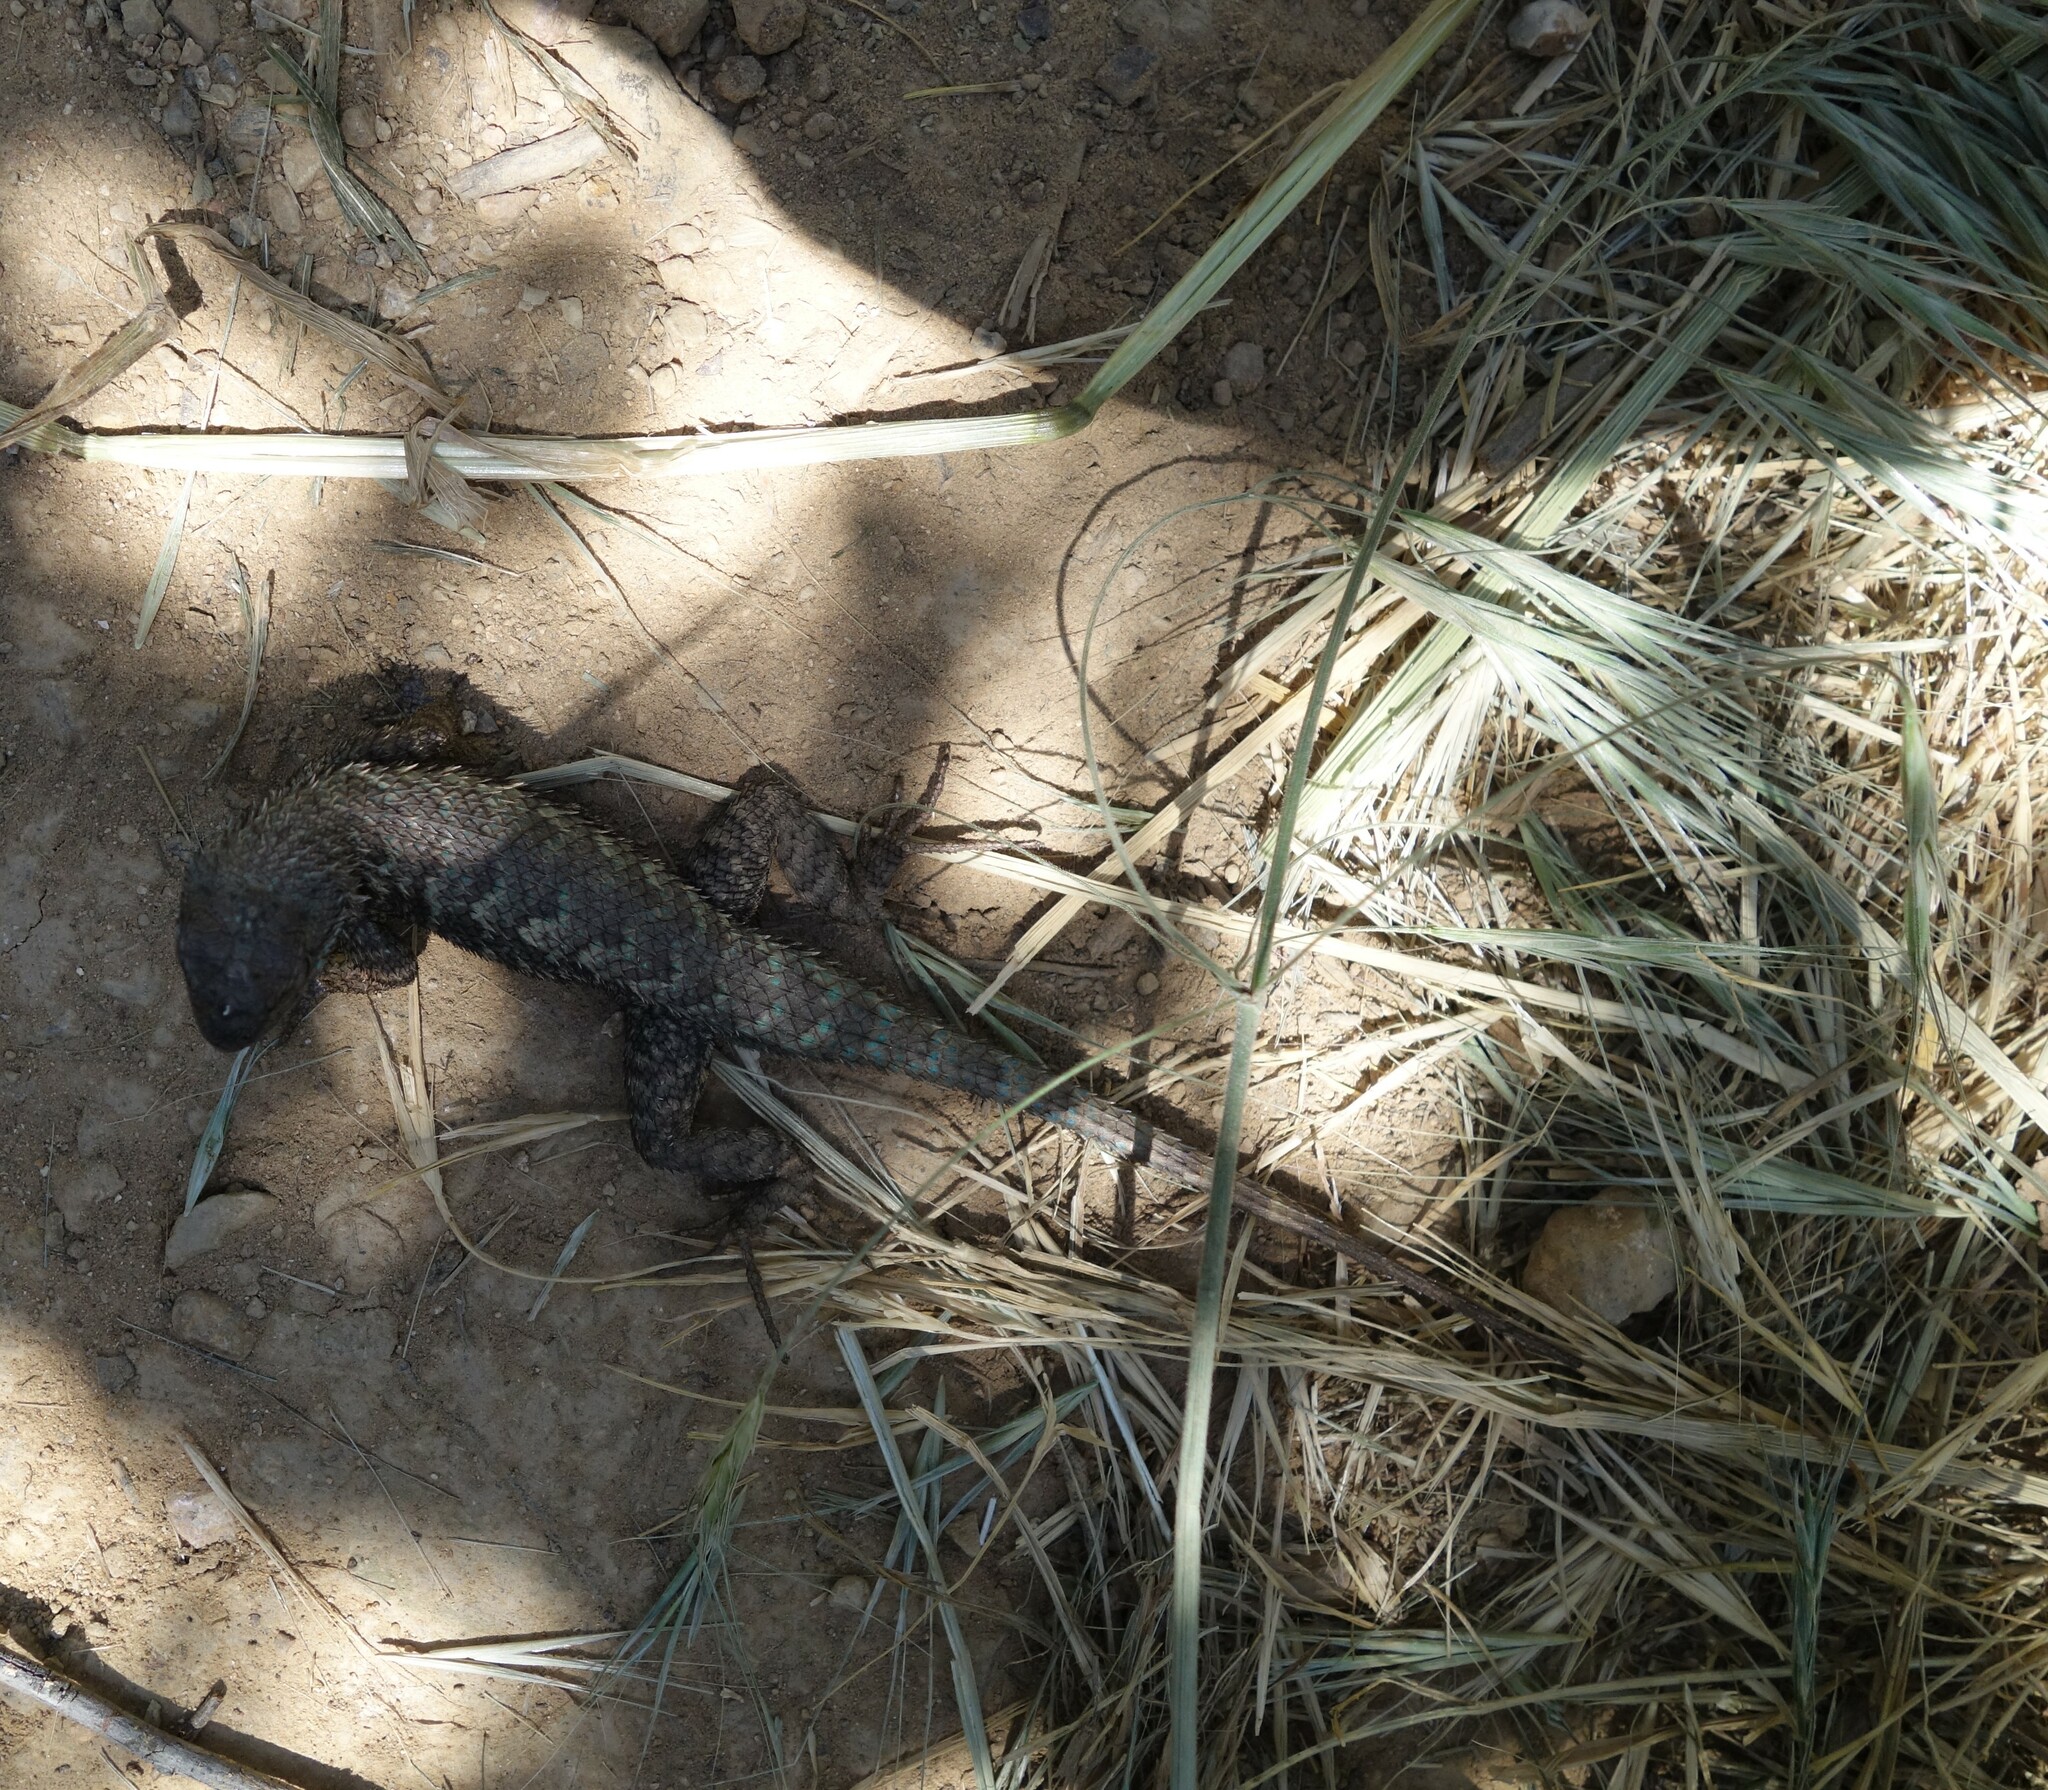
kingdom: Animalia
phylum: Chordata
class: Squamata
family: Phrynosomatidae
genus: Sceloporus
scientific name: Sceloporus occidentalis
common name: Western fence lizard
